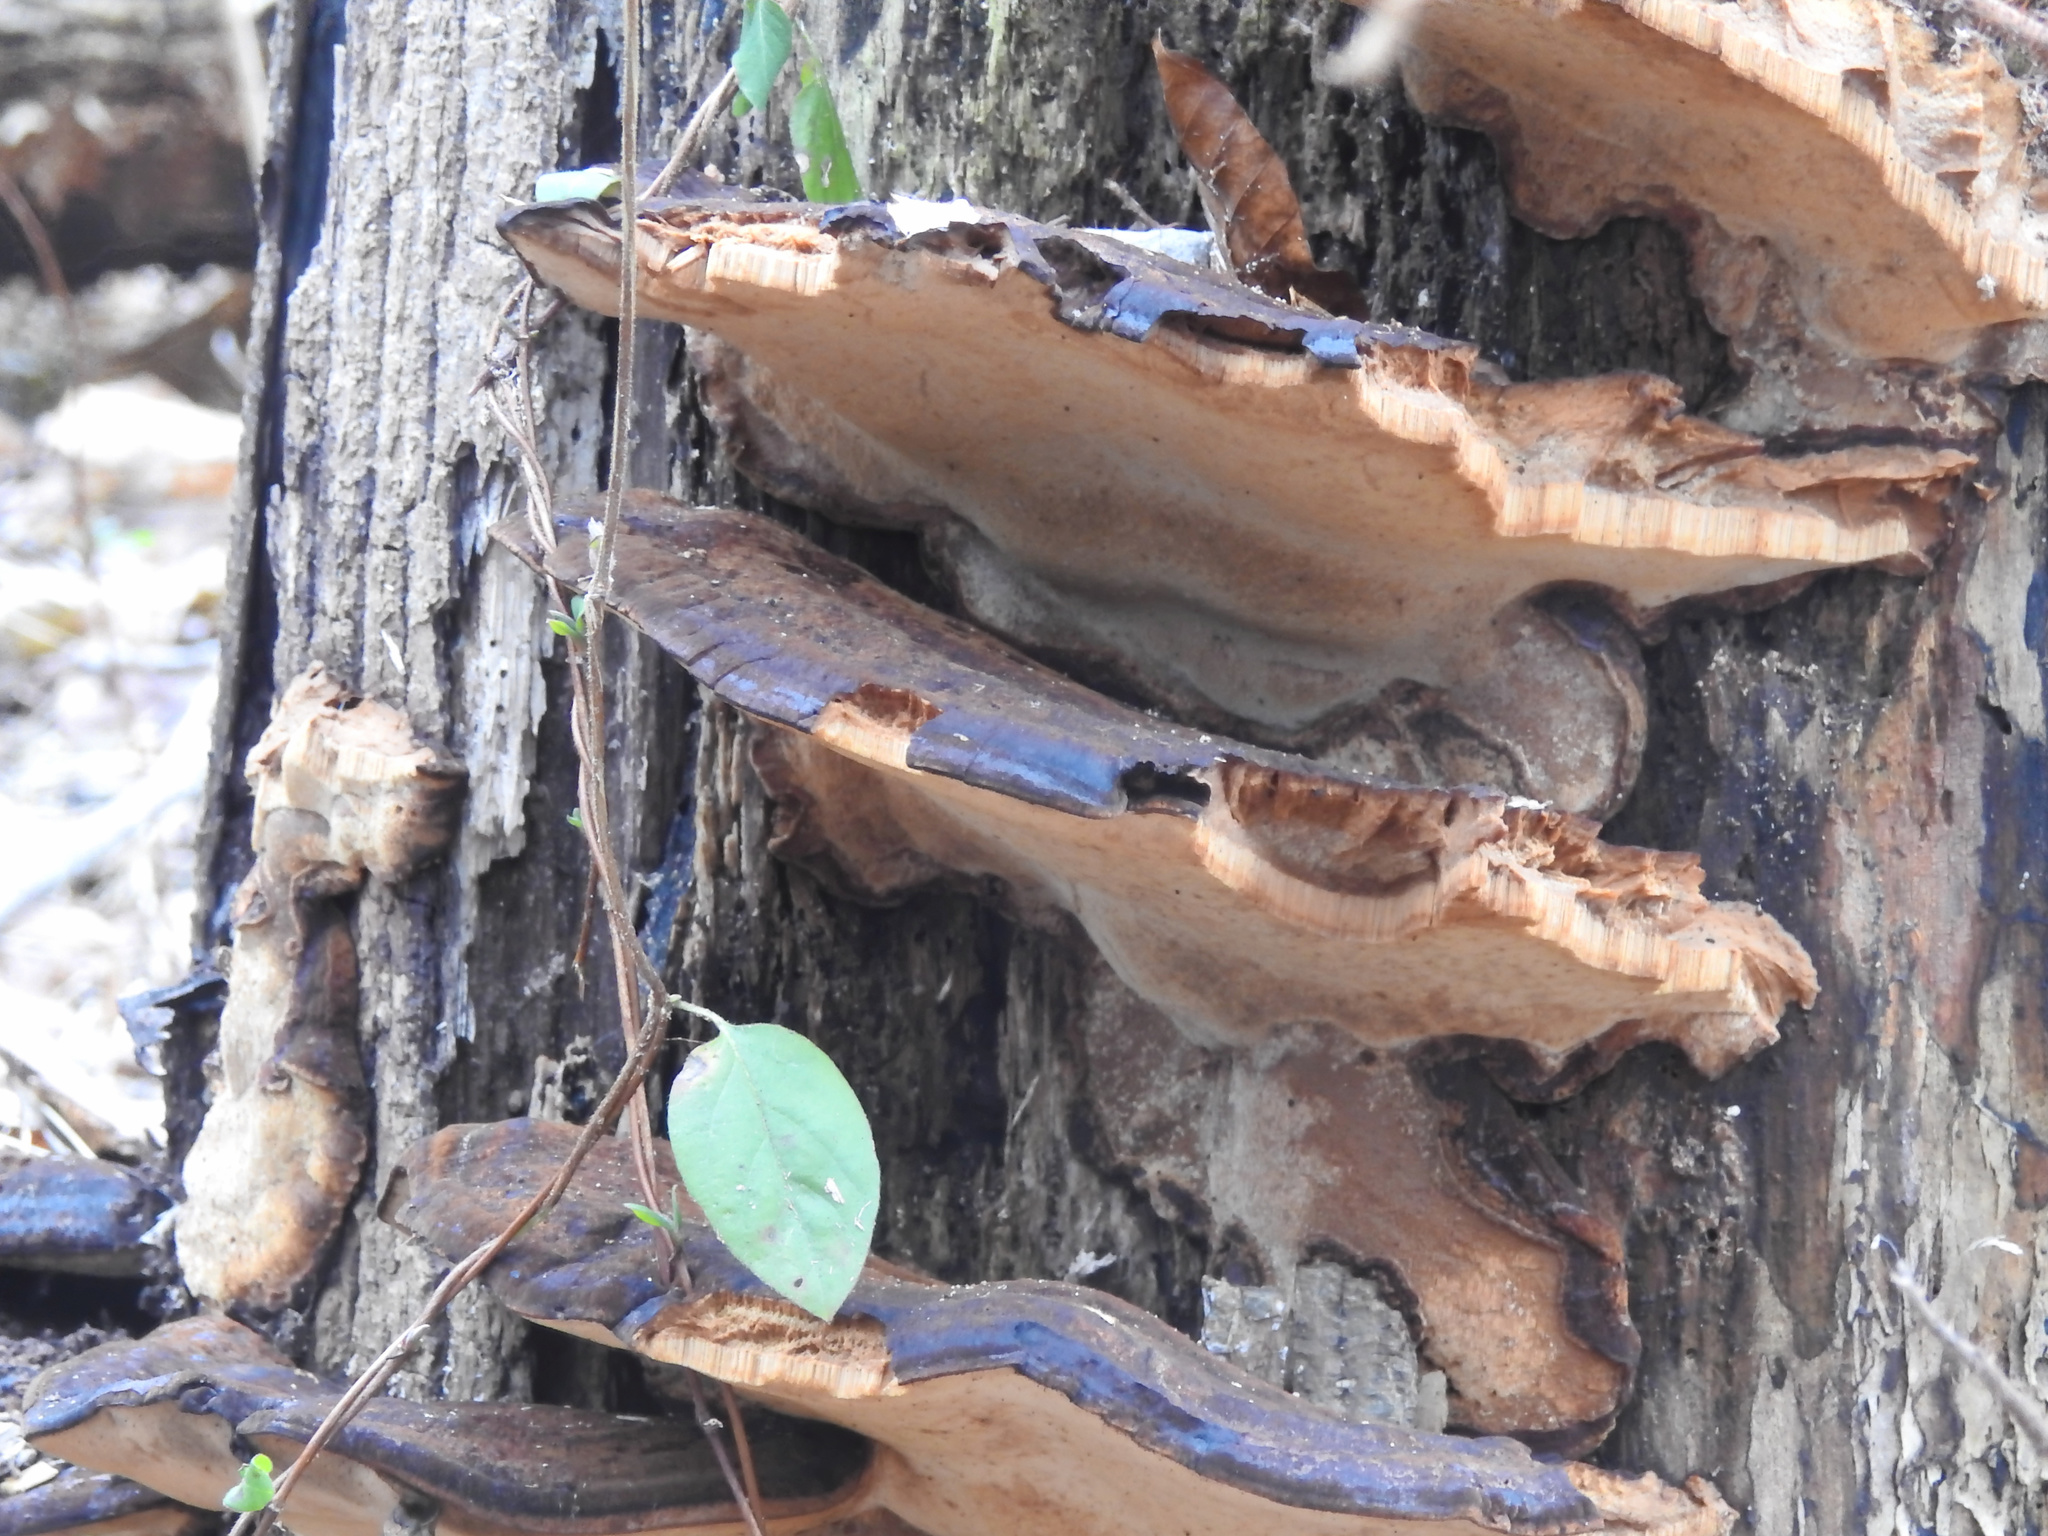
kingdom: Fungi
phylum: Basidiomycota
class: Agaricomycetes
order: Polyporales
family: Ischnodermataceae
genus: Ischnoderma
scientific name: Ischnoderma resinosum
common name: Resinous polypore
